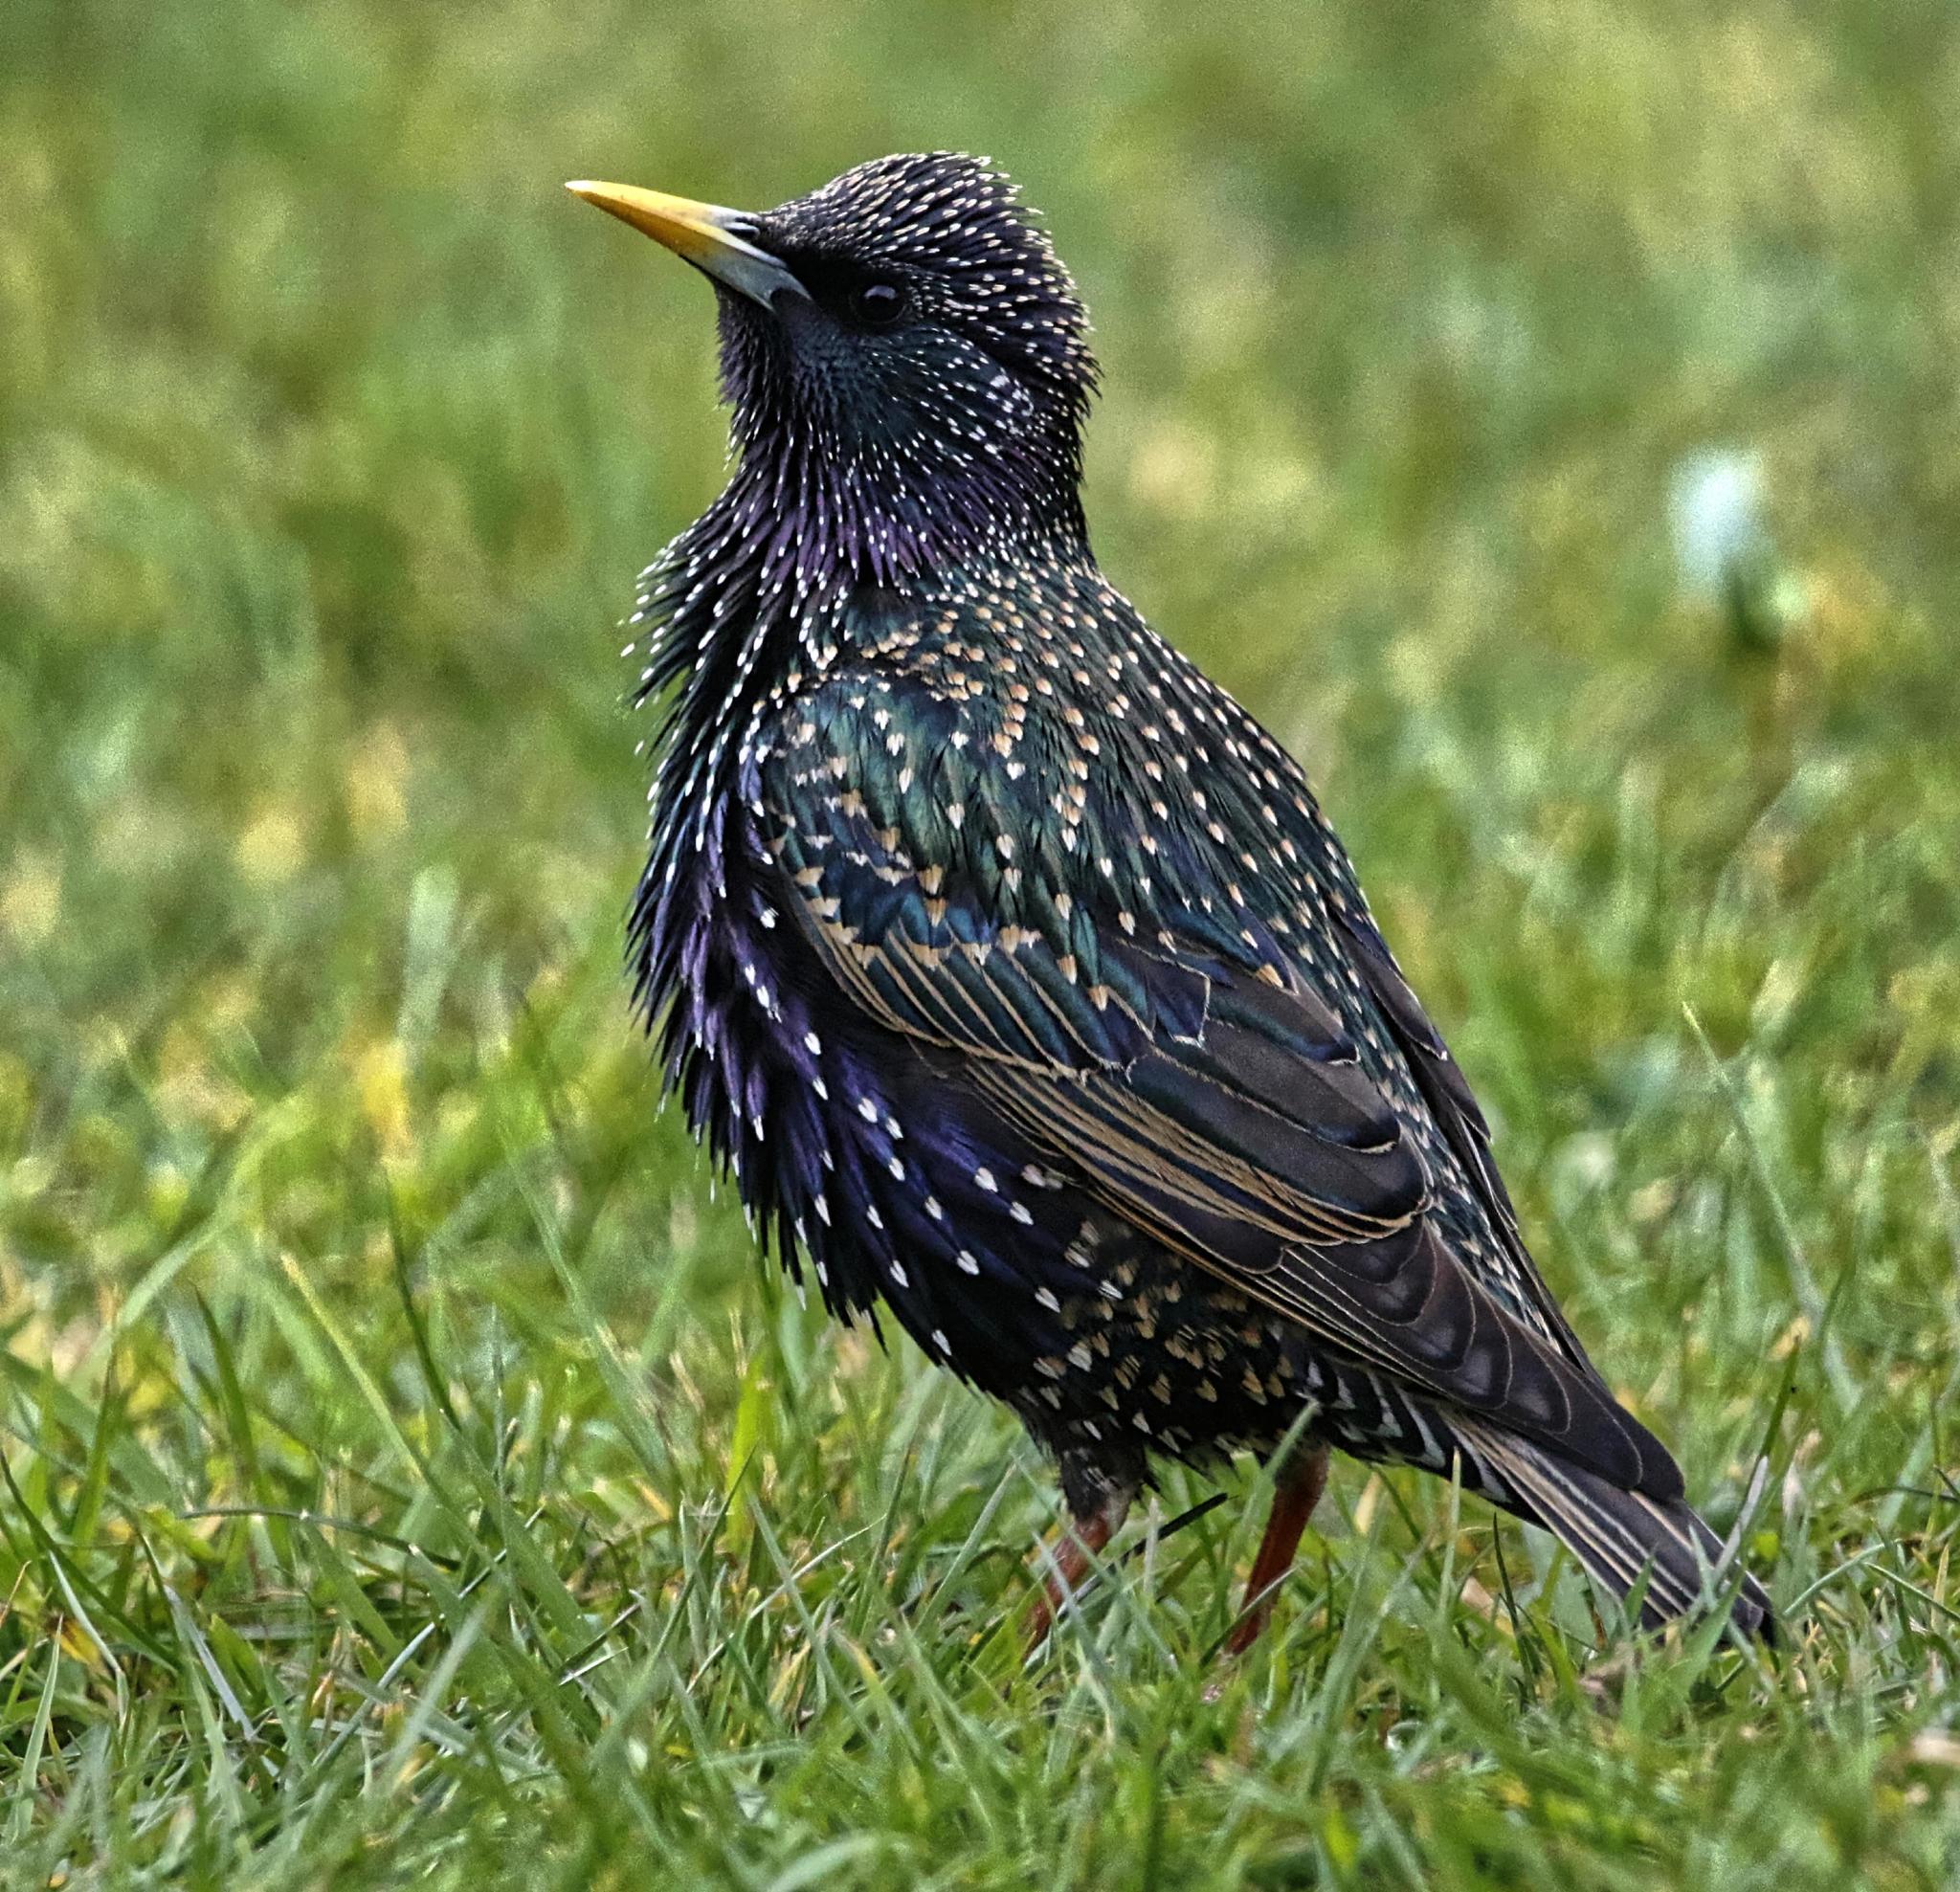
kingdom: Animalia
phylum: Chordata
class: Aves
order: Passeriformes
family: Sturnidae
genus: Sturnus
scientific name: Sturnus vulgaris
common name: Common starling
